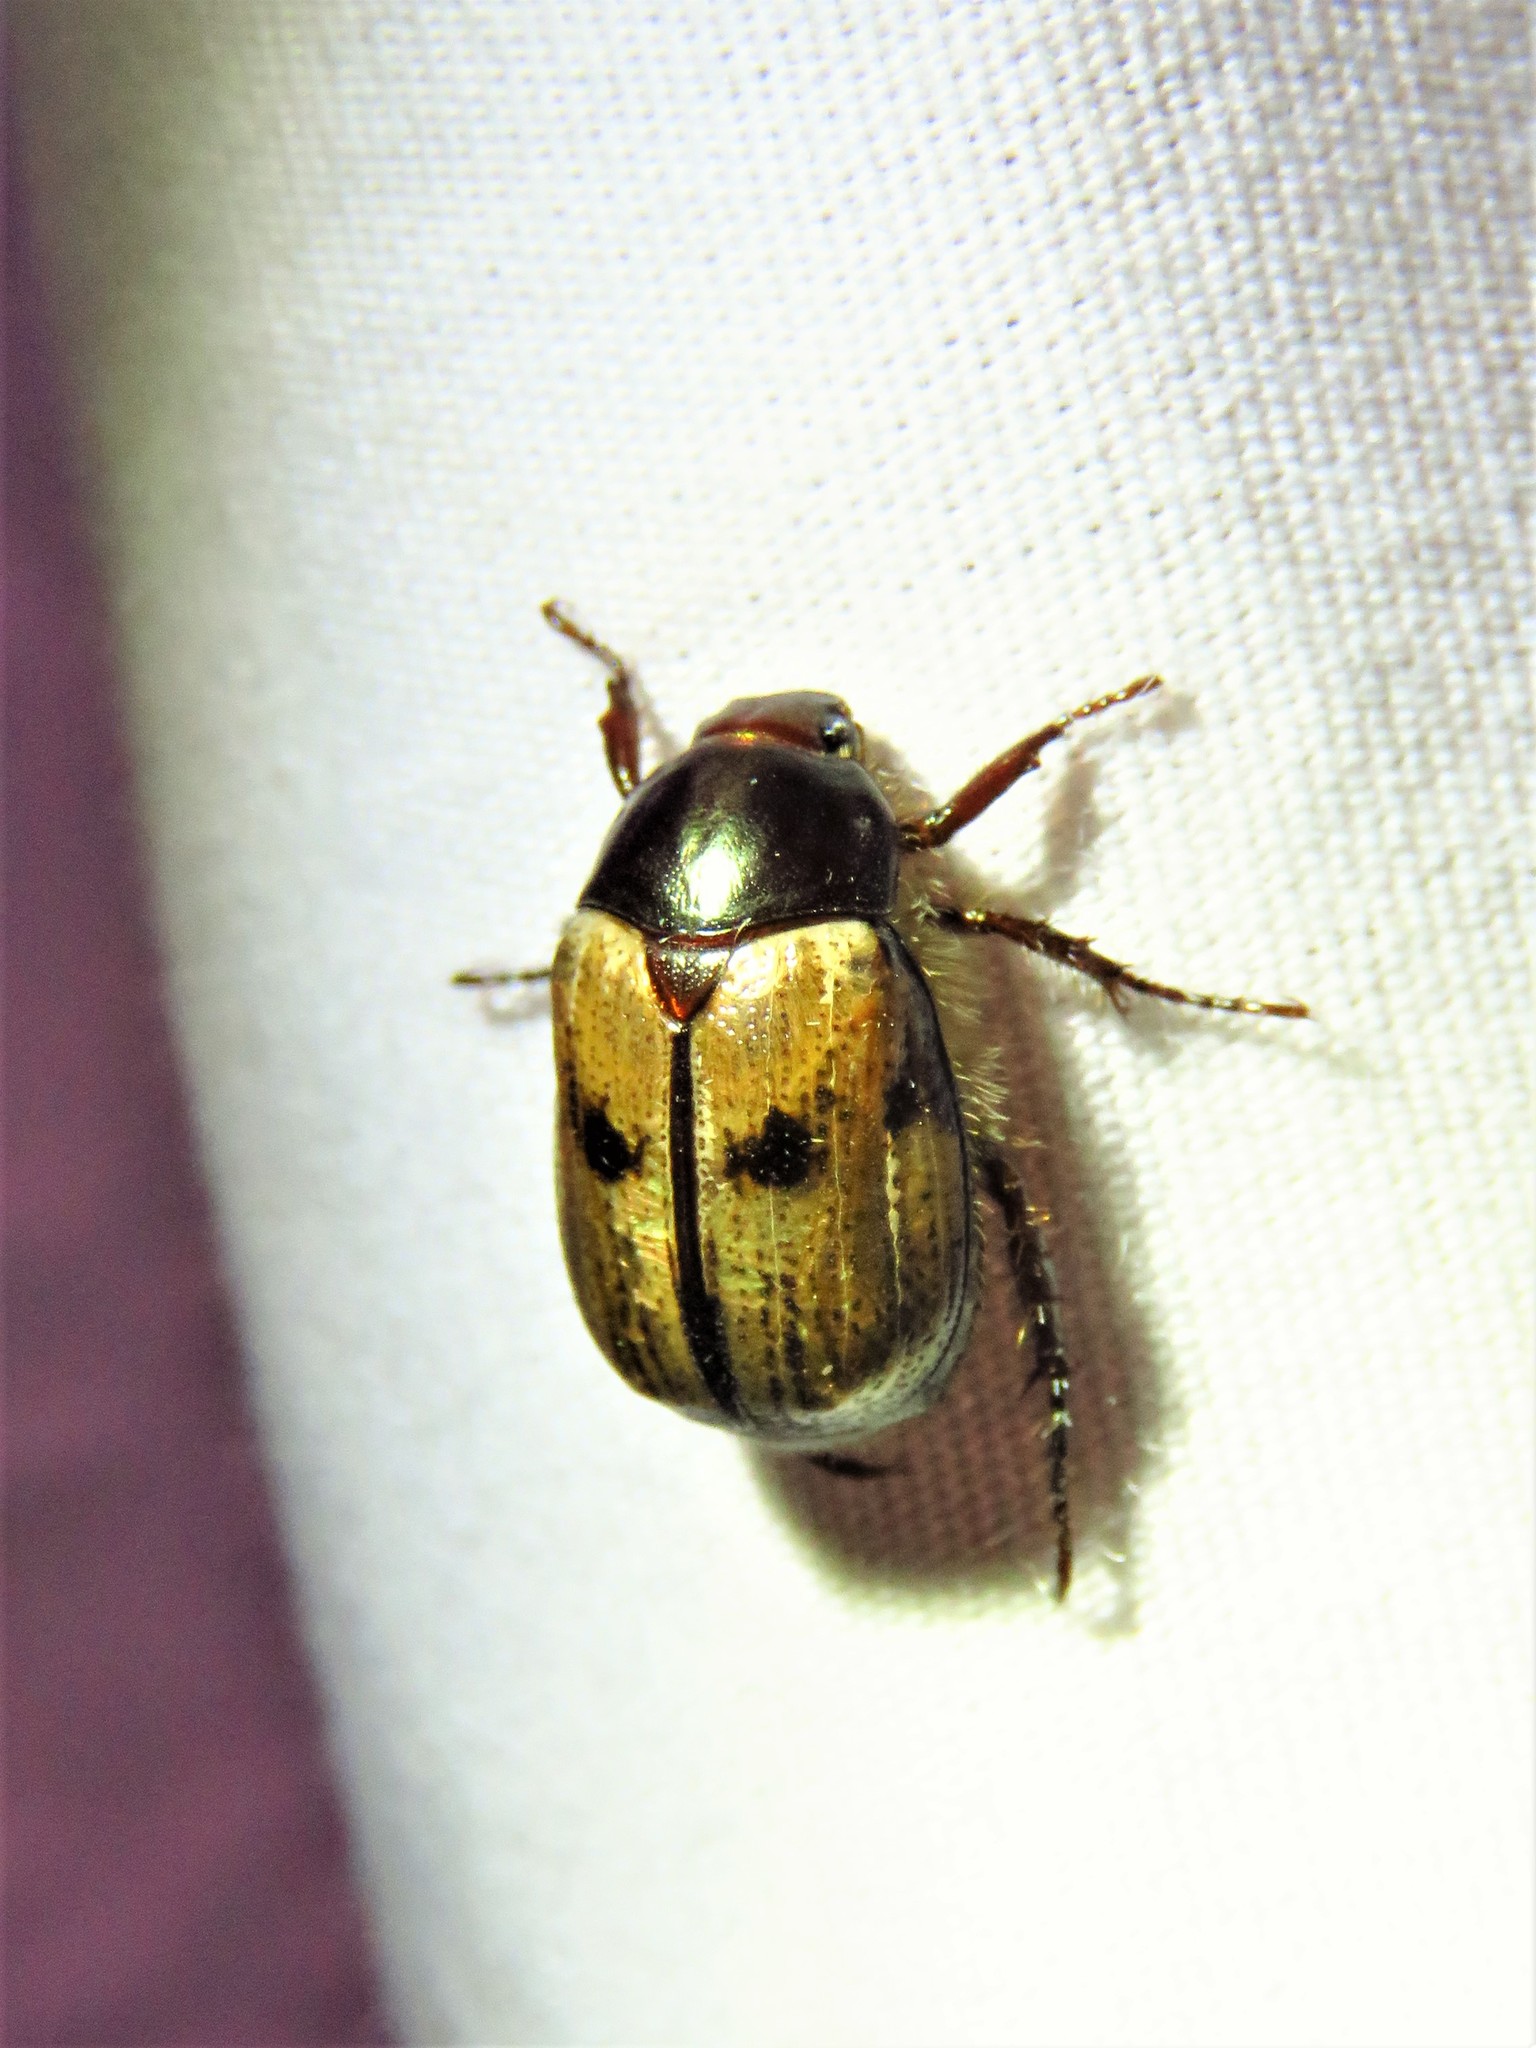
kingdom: Animalia
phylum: Arthropoda
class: Insecta
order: Coleoptera
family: Scarabaeidae
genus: Paranomala
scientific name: Paranomala binotata
